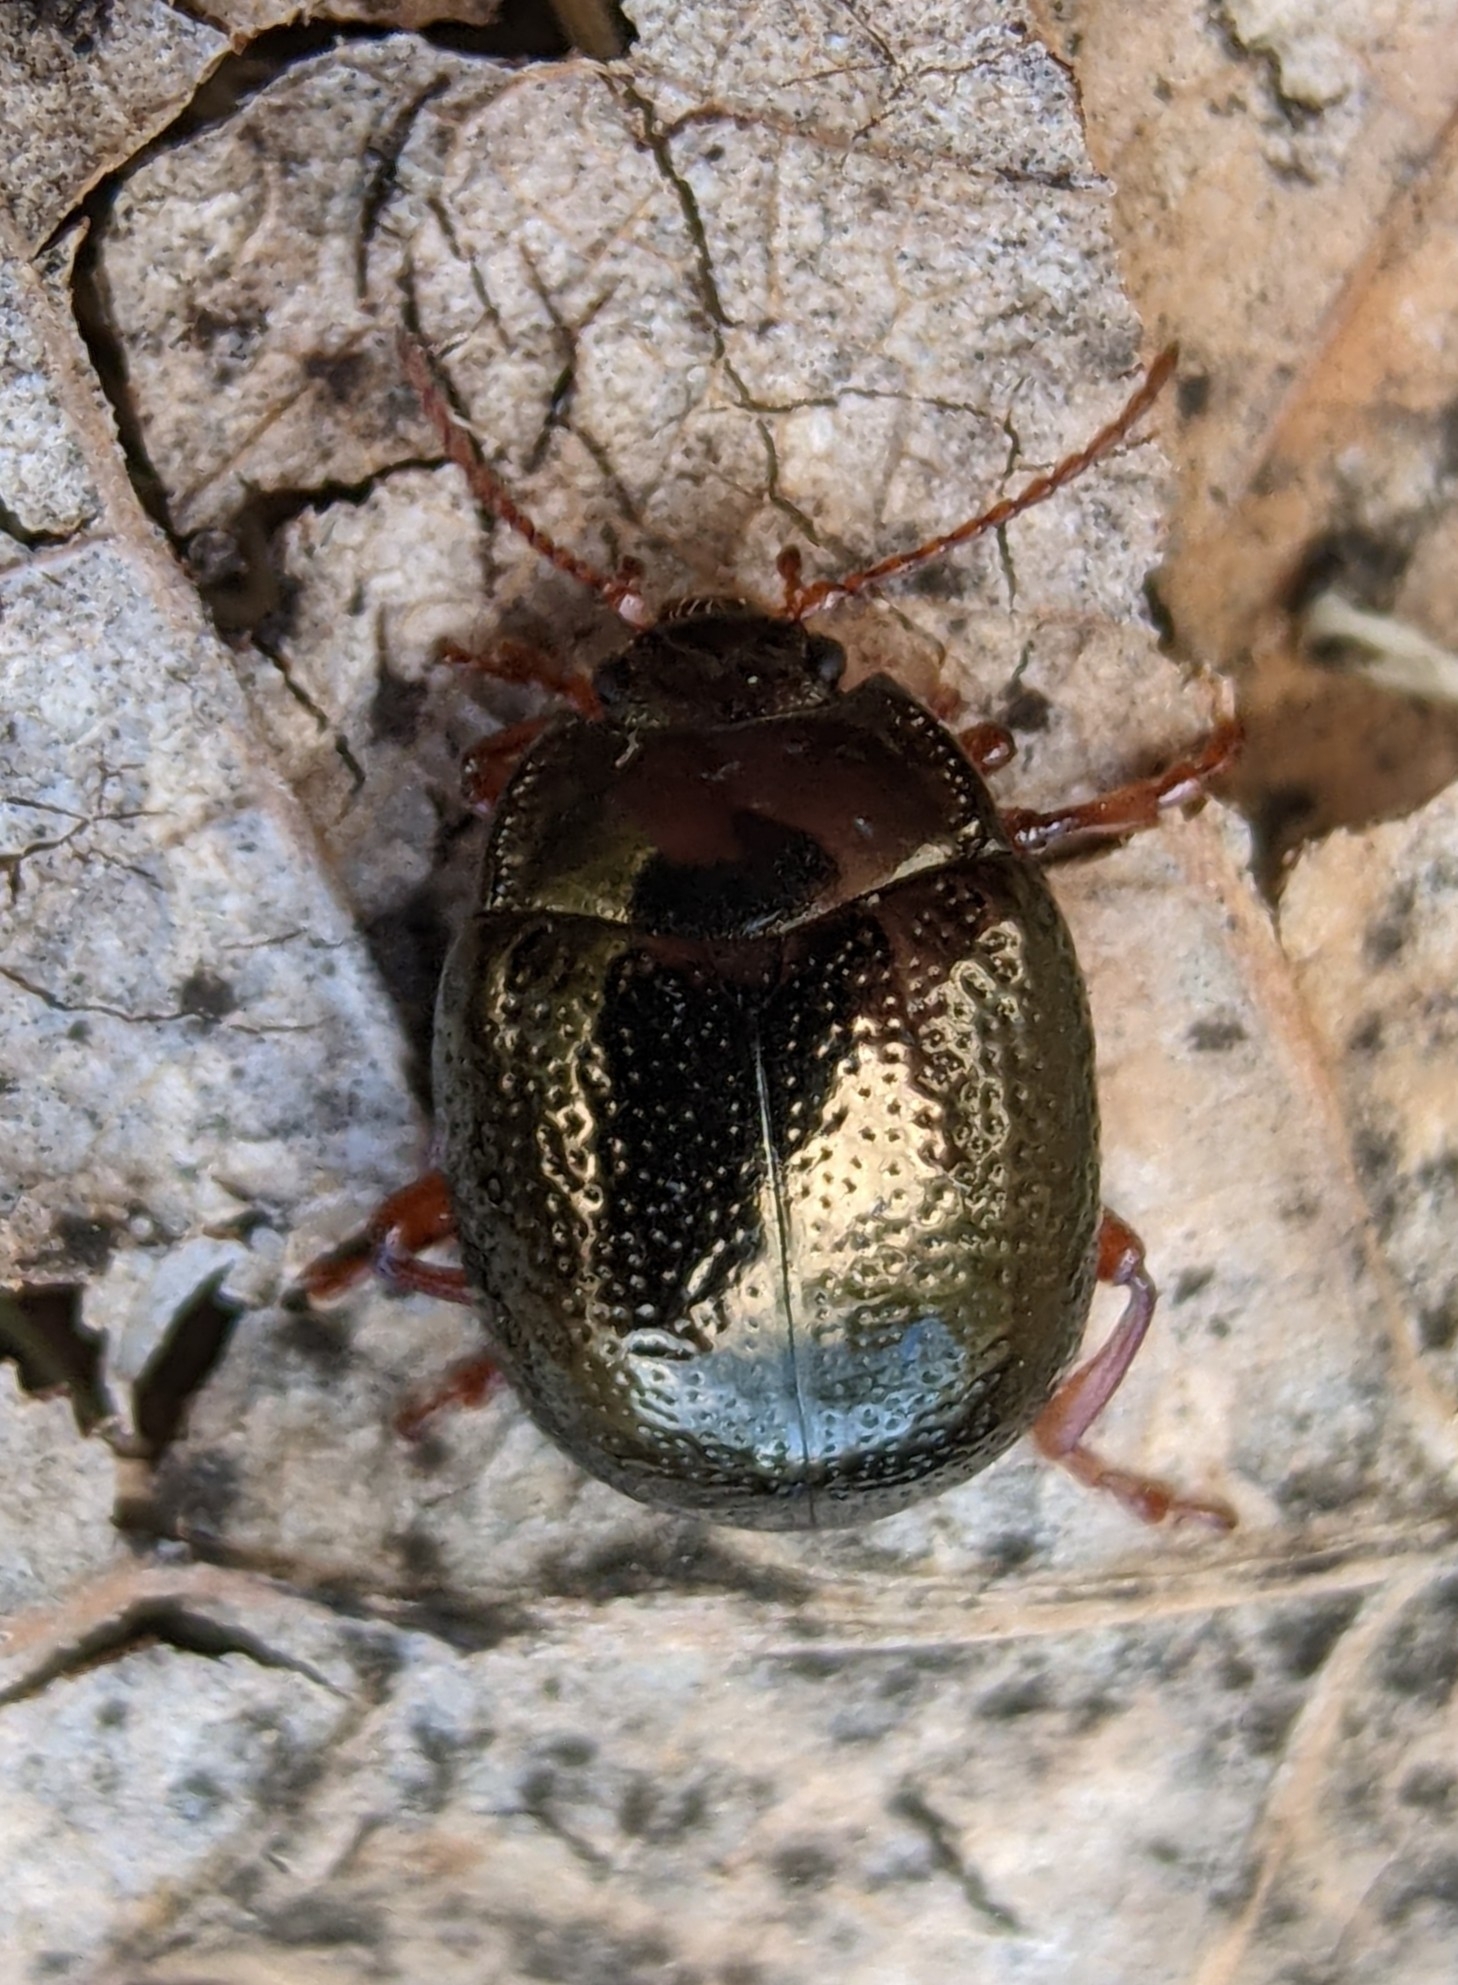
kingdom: Animalia
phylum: Arthropoda
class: Insecta
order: Coleoptera
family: Chrysomelidae
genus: Chrysolina
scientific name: Chrysolina bankii
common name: Leaf beetle
